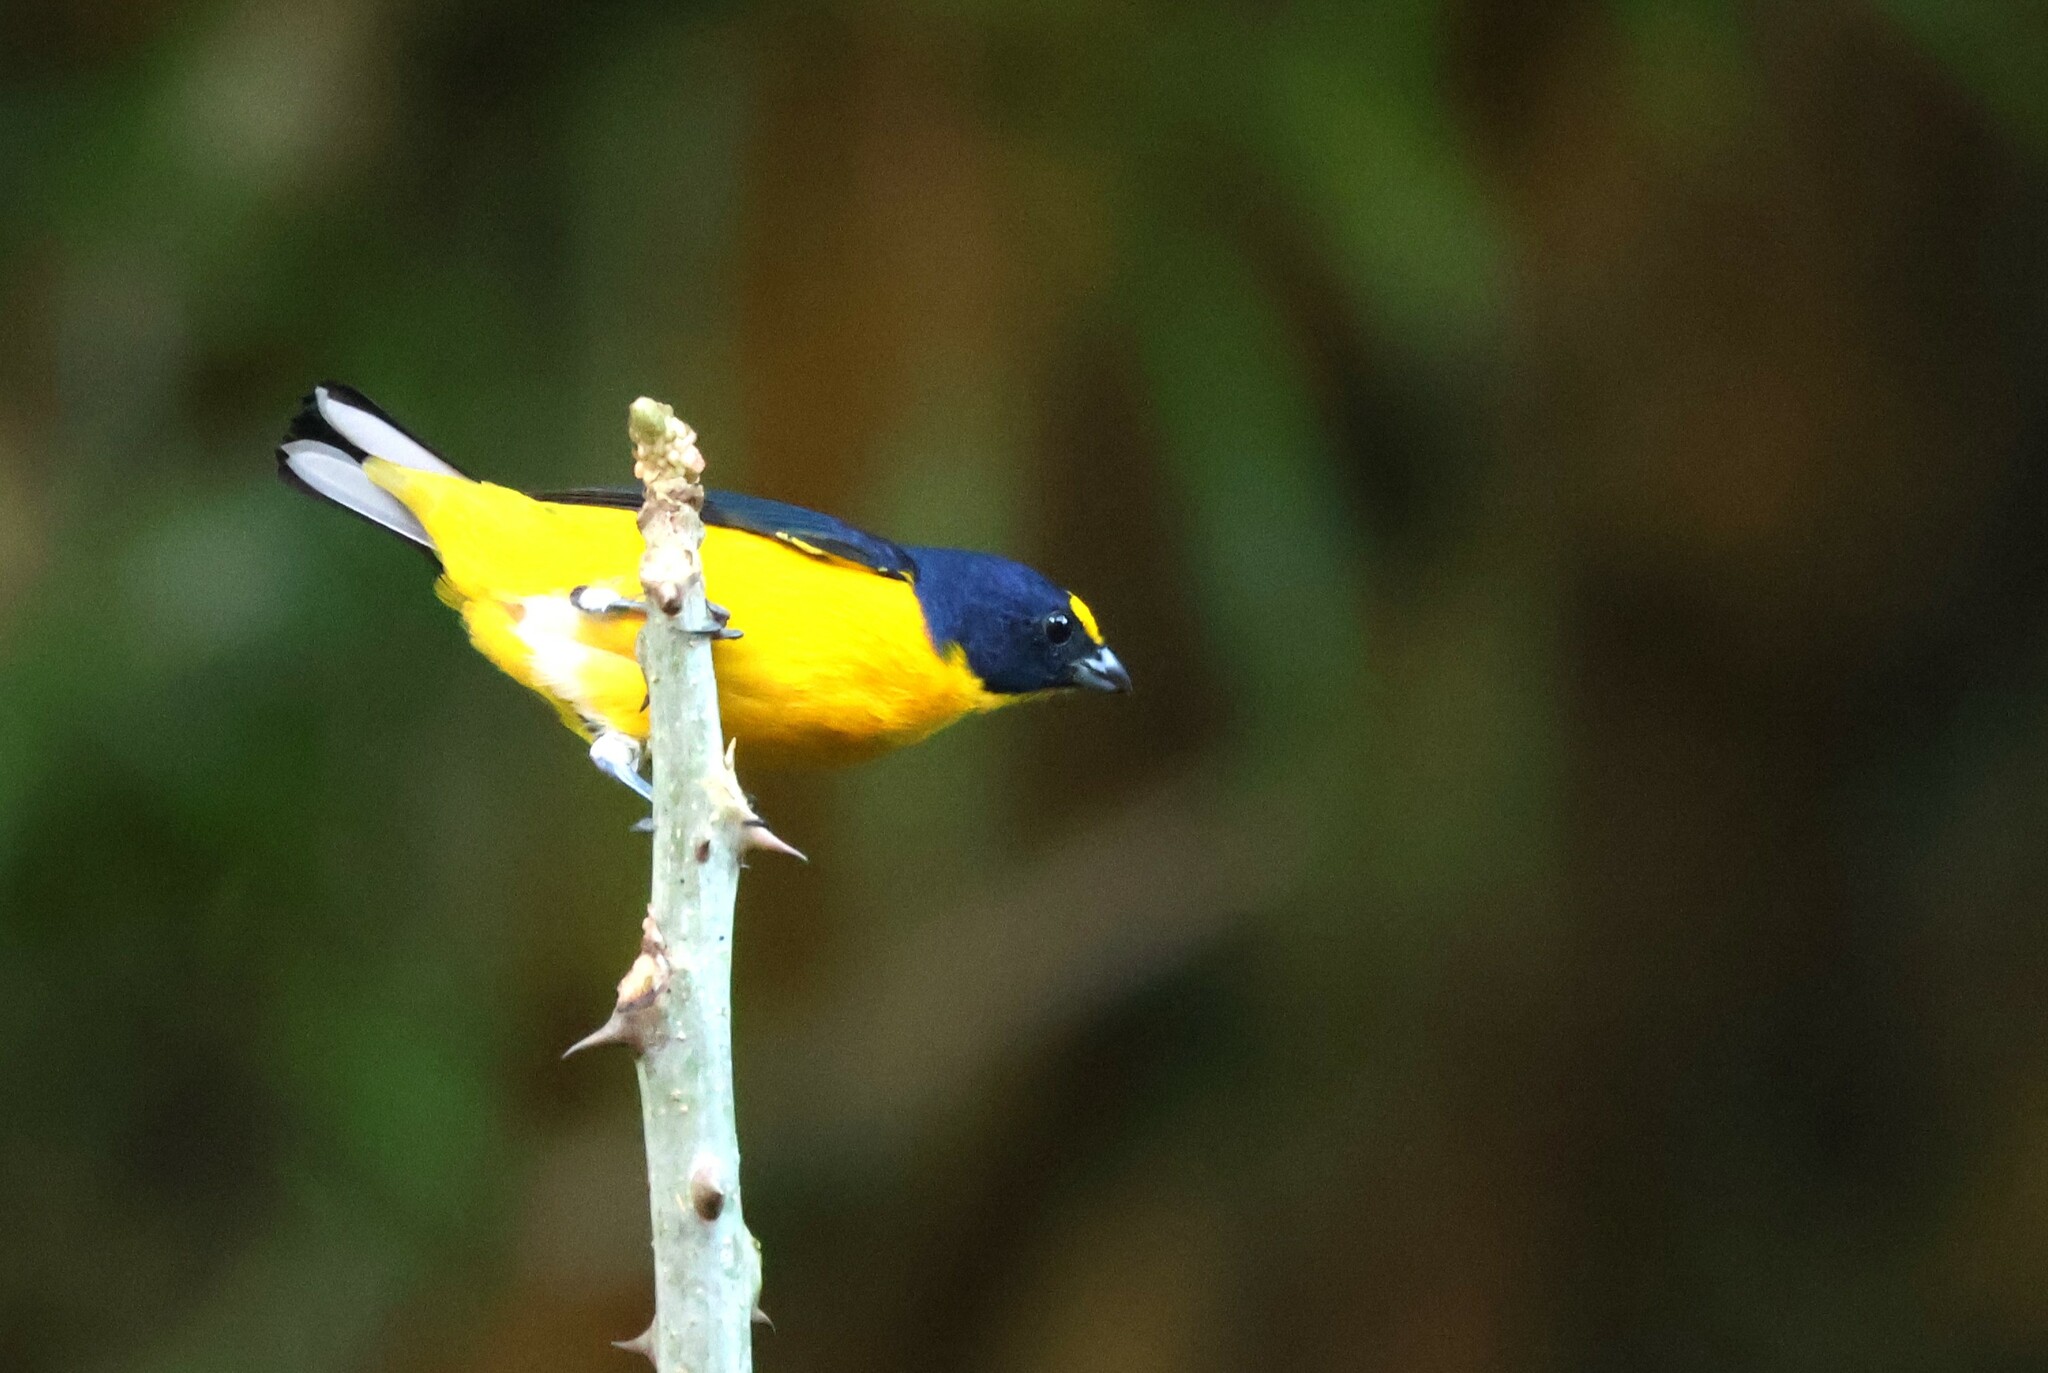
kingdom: Animalia
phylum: Chordata
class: Aves
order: Passeriformes
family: Fringillidae
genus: Euphonia
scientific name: Euphonia hirundinacea
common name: Yellow-throated euphonia
